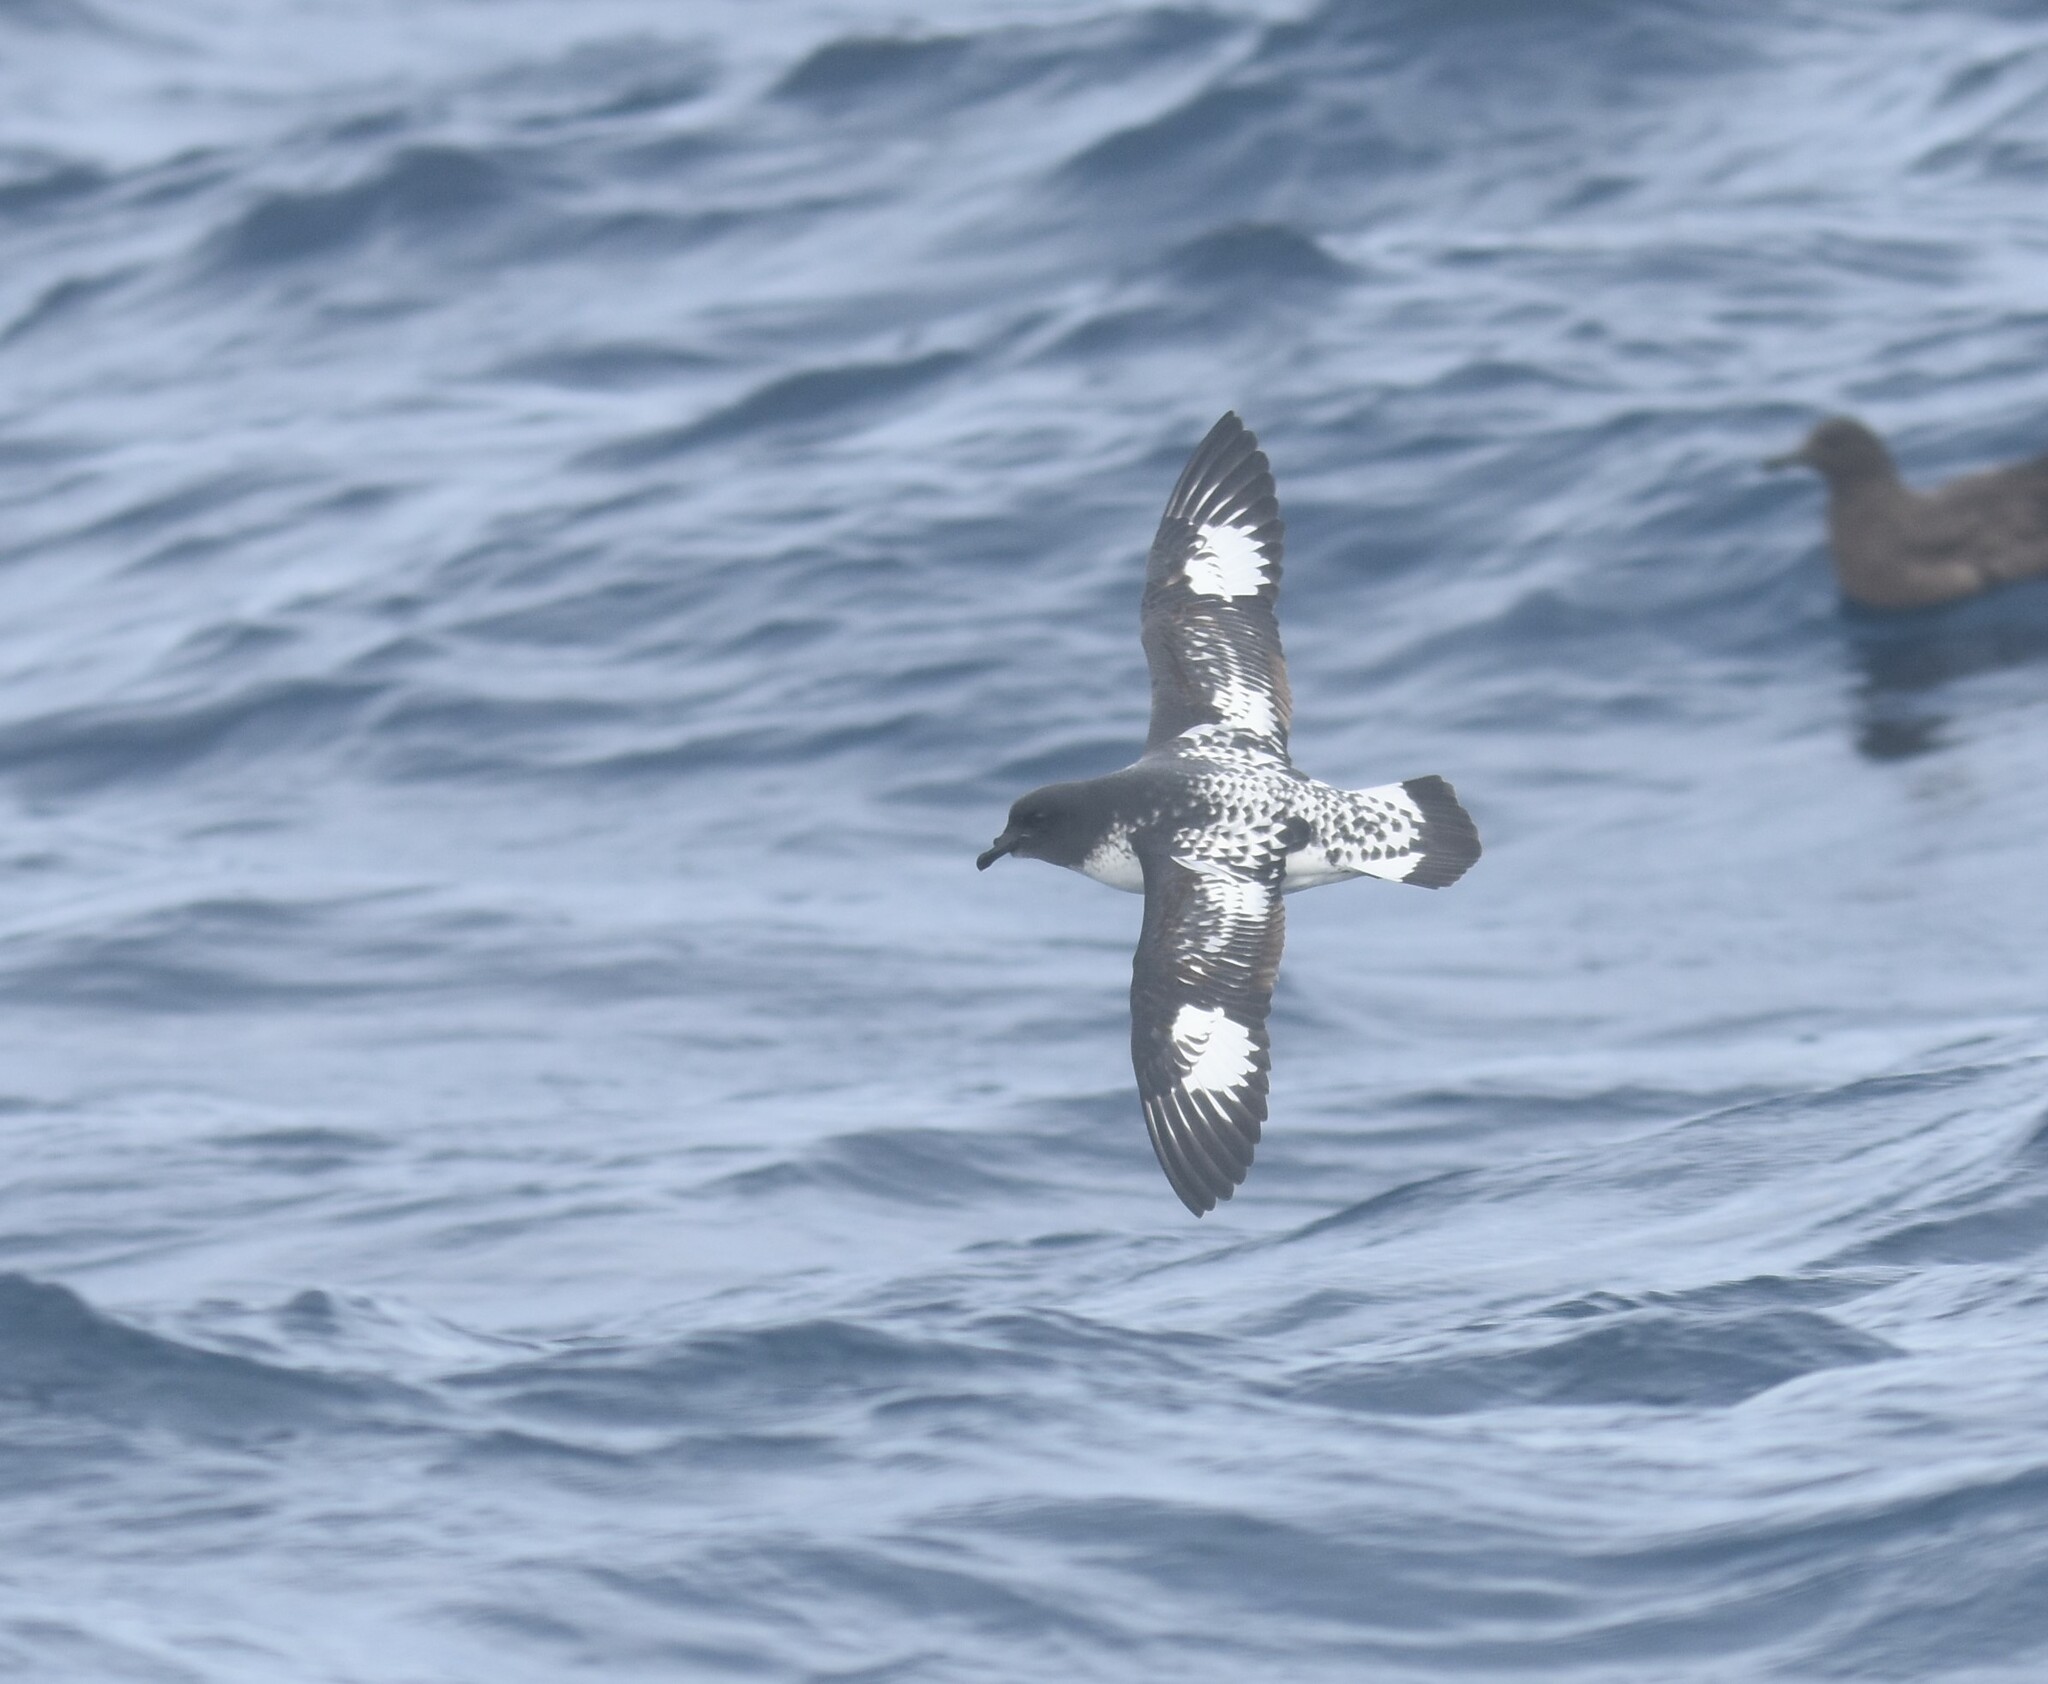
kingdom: Animalia
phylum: Chordata
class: Aves
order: Procellariiformes
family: Procellariidae
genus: Daption
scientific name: Daption capense
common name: Cape petrel
